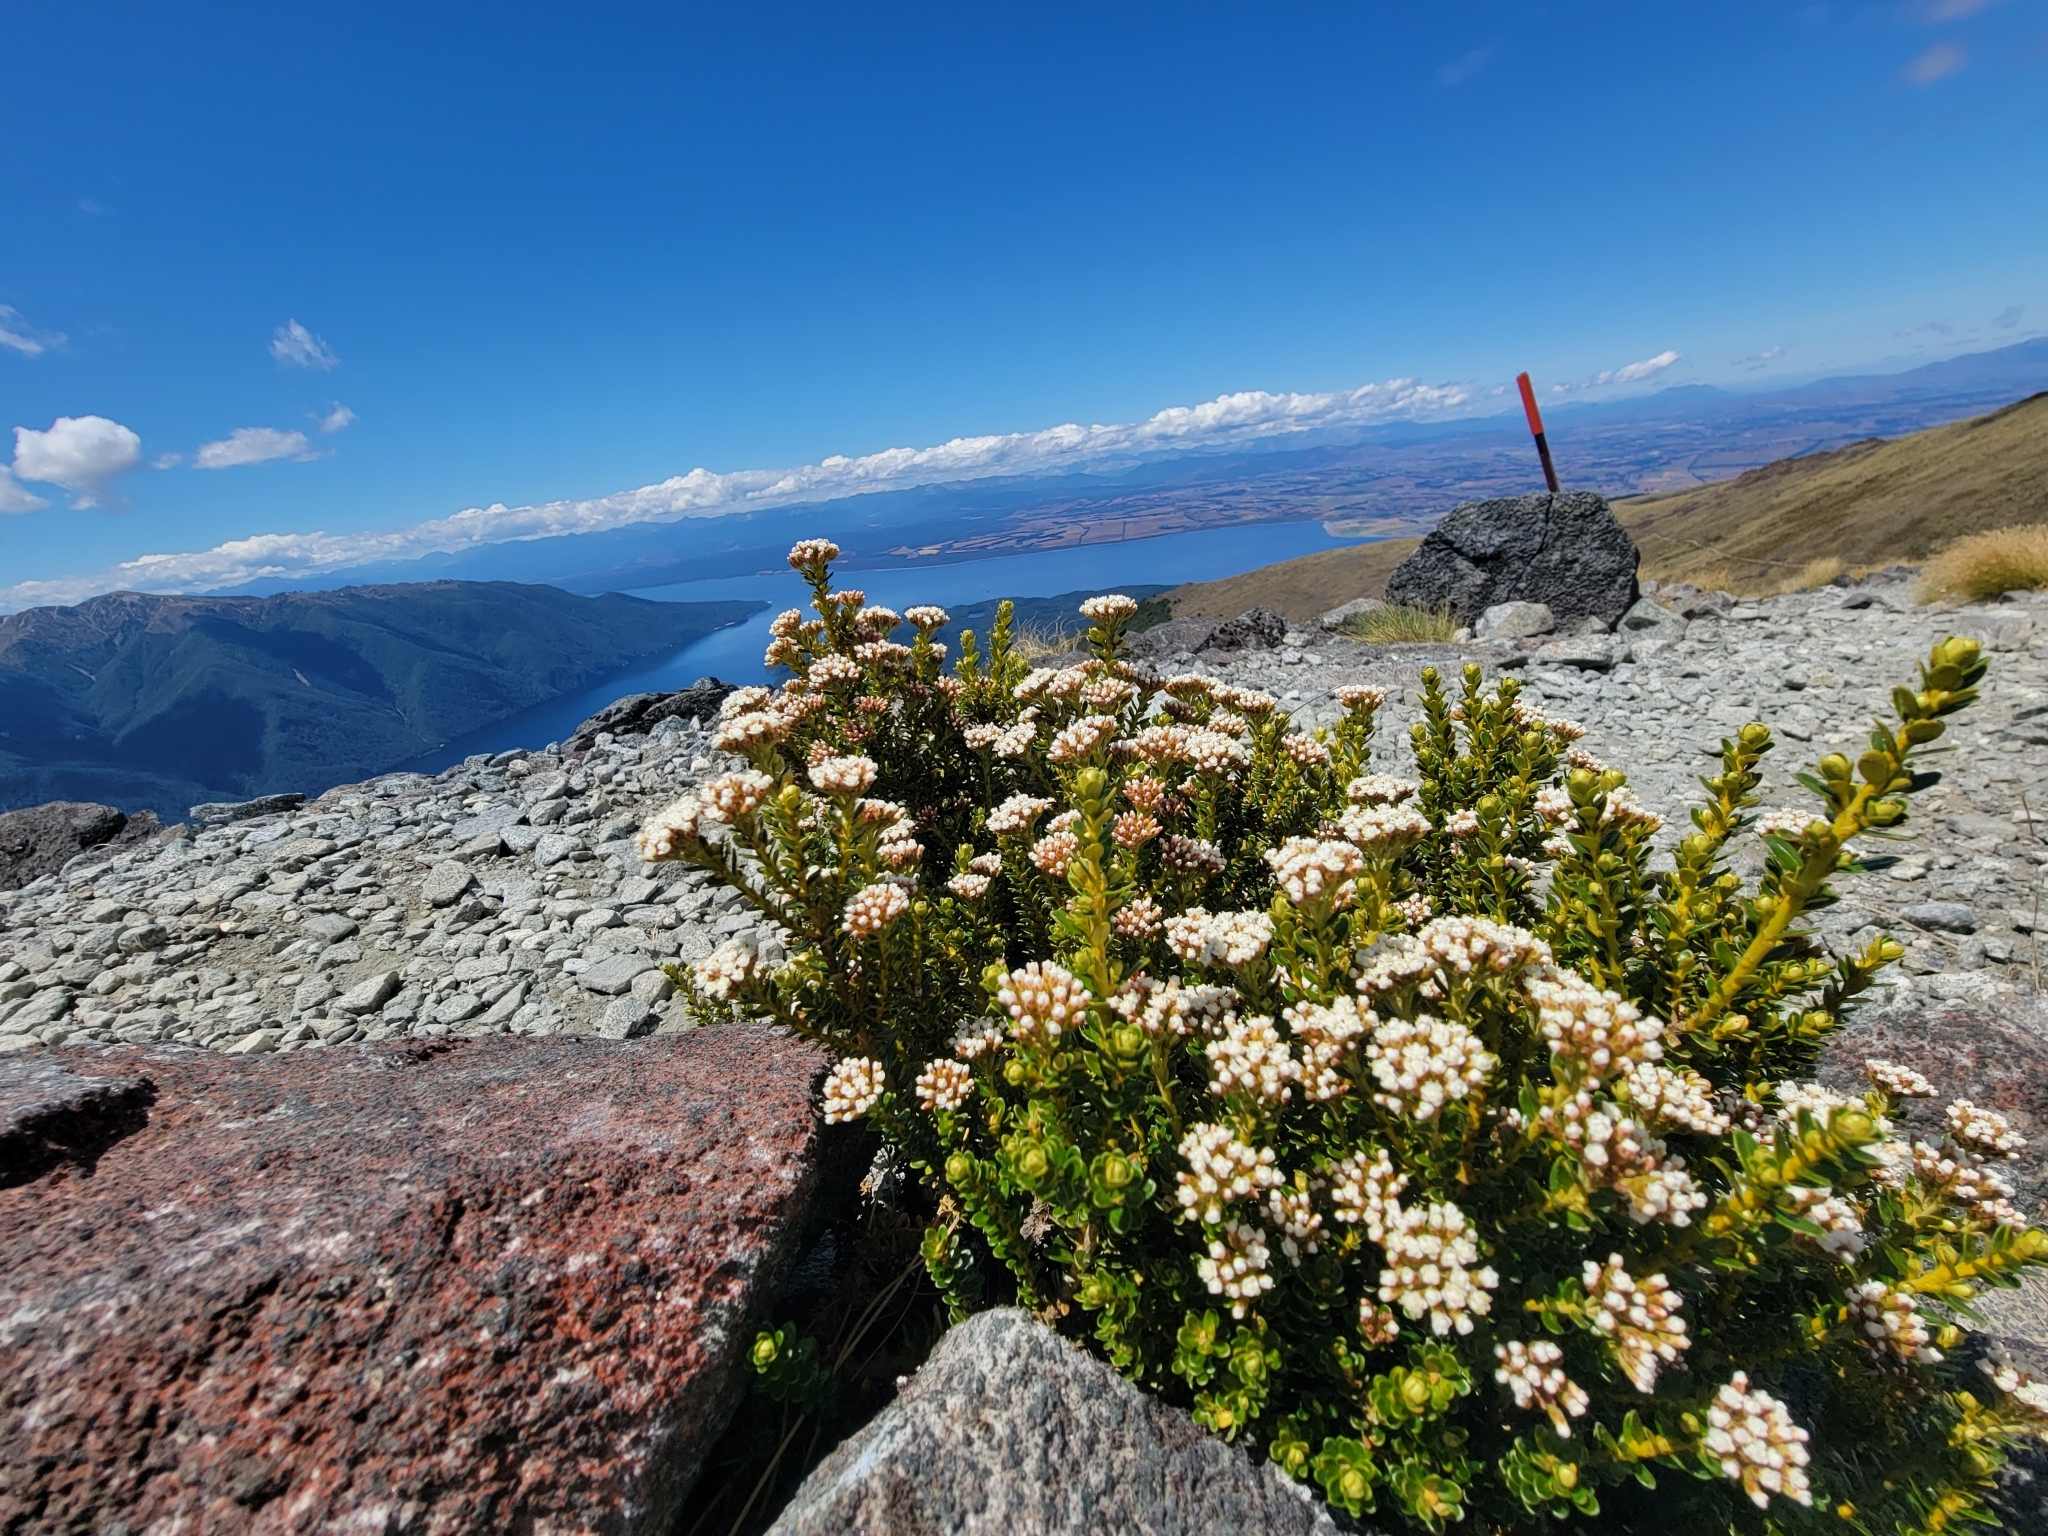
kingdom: Plantae
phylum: Tracheophyta
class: Magnoliopsida
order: Asterales
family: Asteraceae
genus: Ozothamnus
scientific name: Ozothamnus leptophyllus
